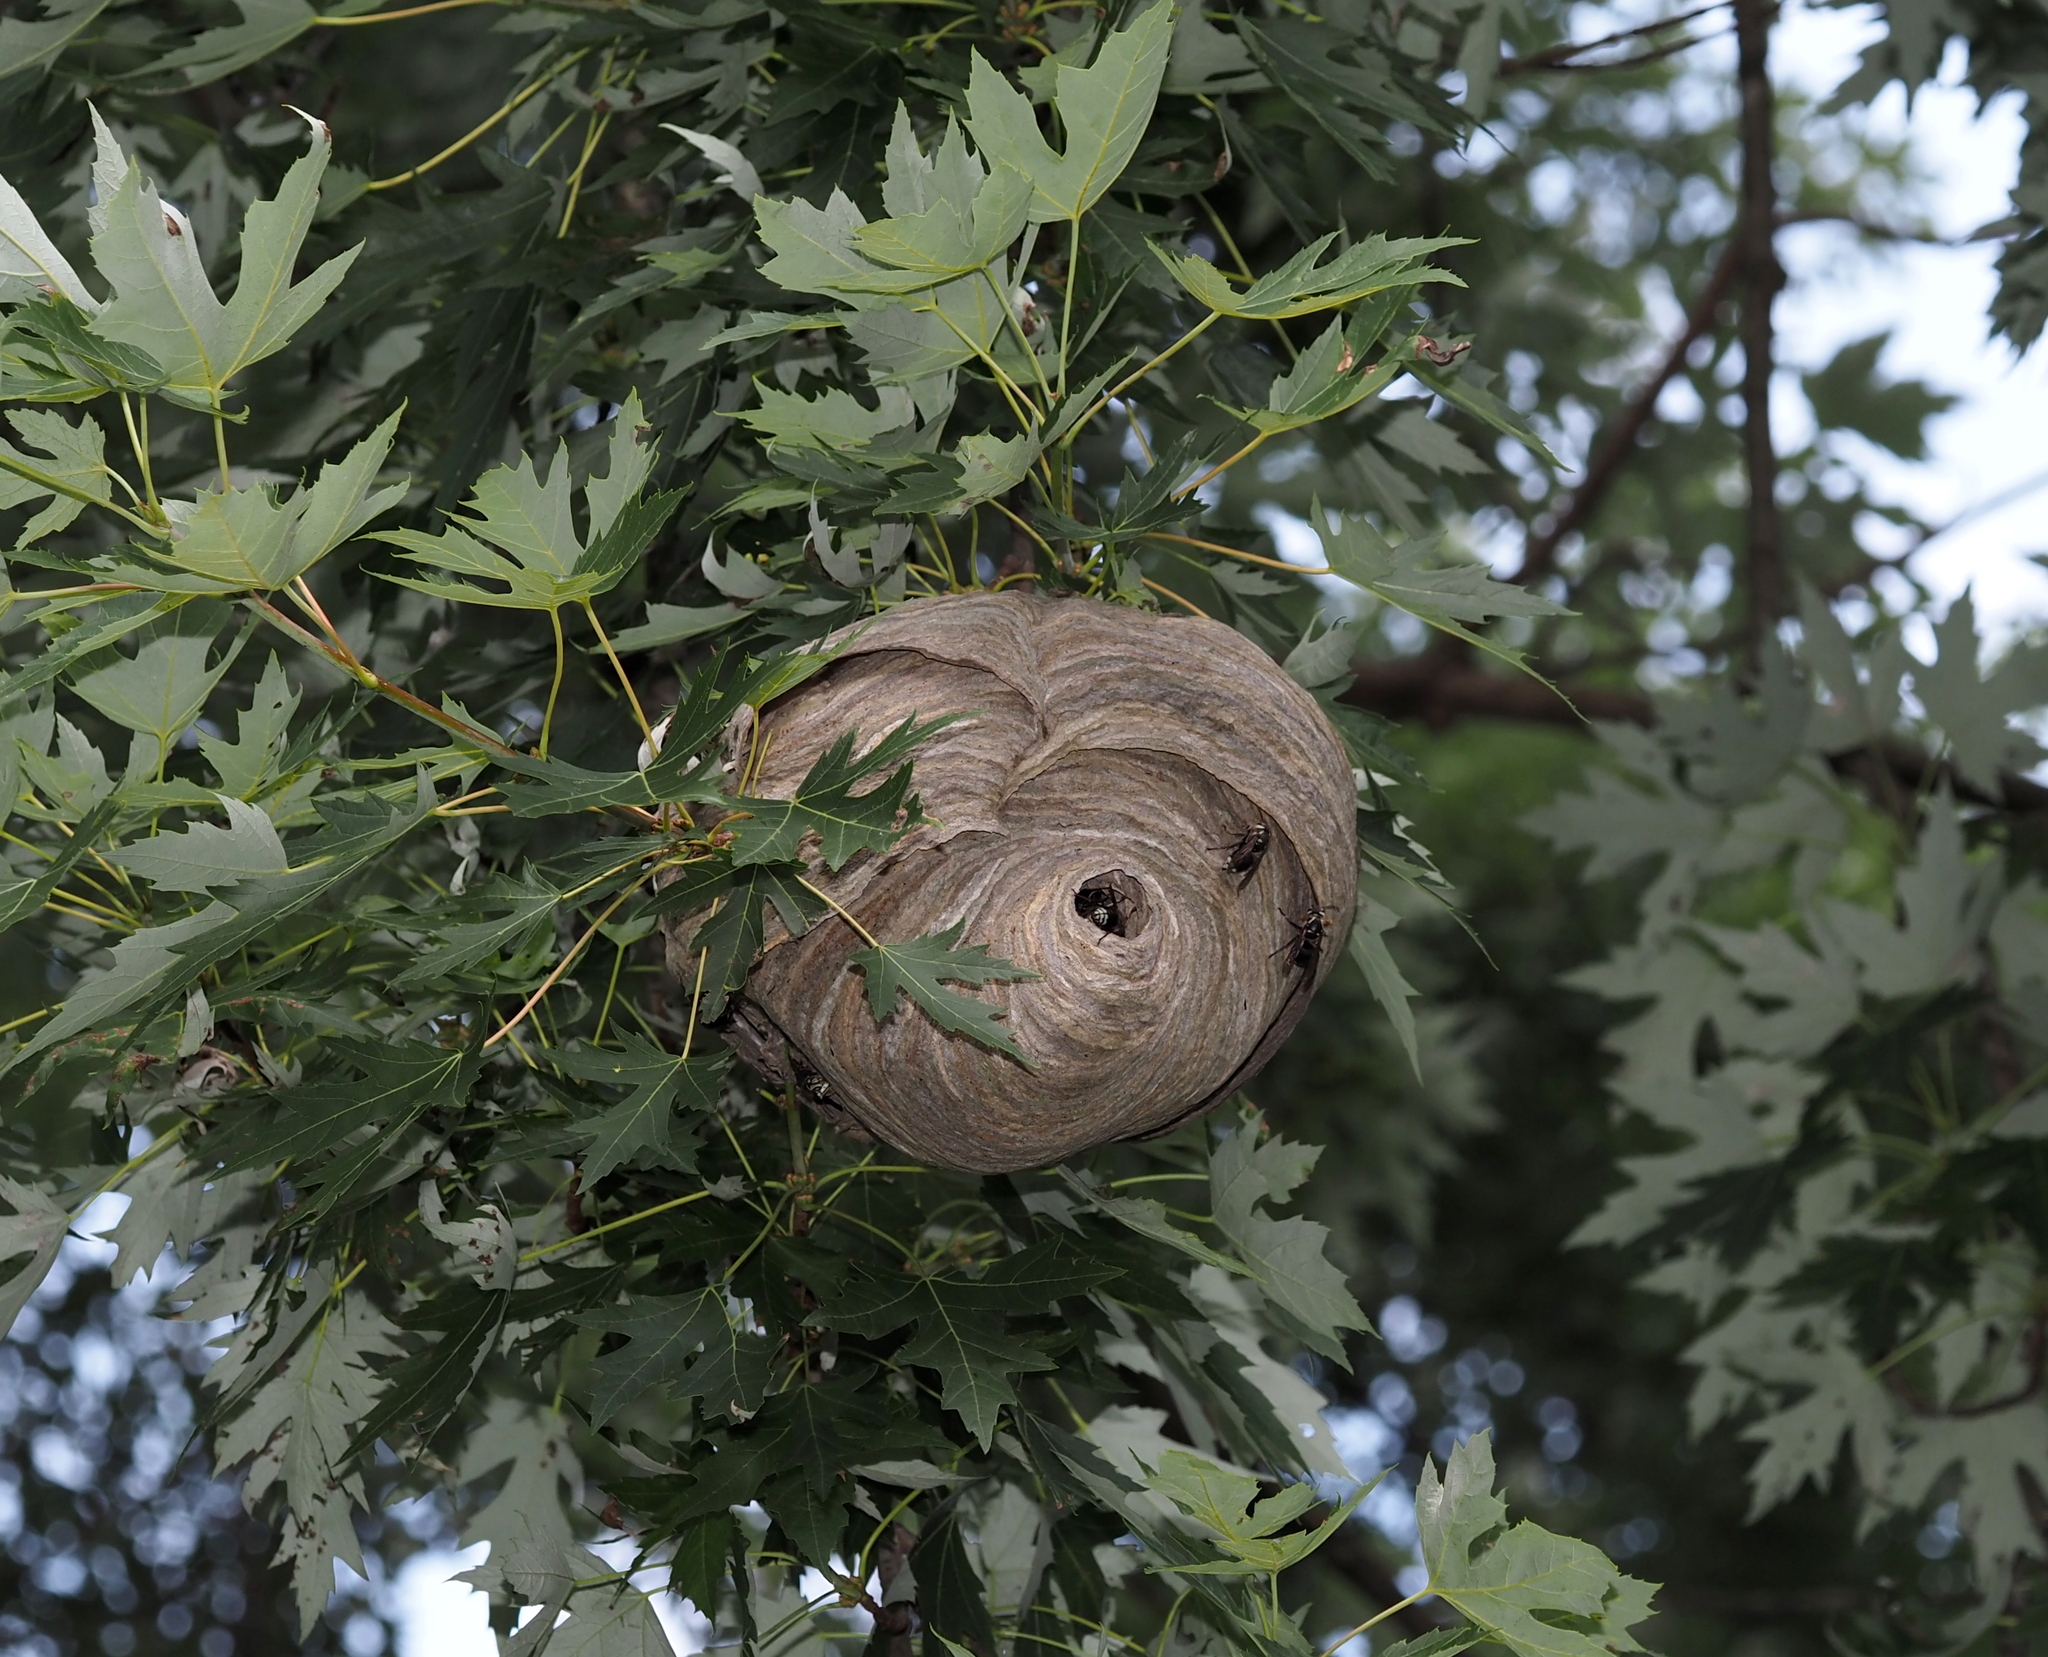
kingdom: Animalia
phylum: Arthropoda
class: Insecta
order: Hymenoptera
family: Vespidae
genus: Dolichovespula
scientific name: Dolichovespula maculata
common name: Bald-faced hornet
